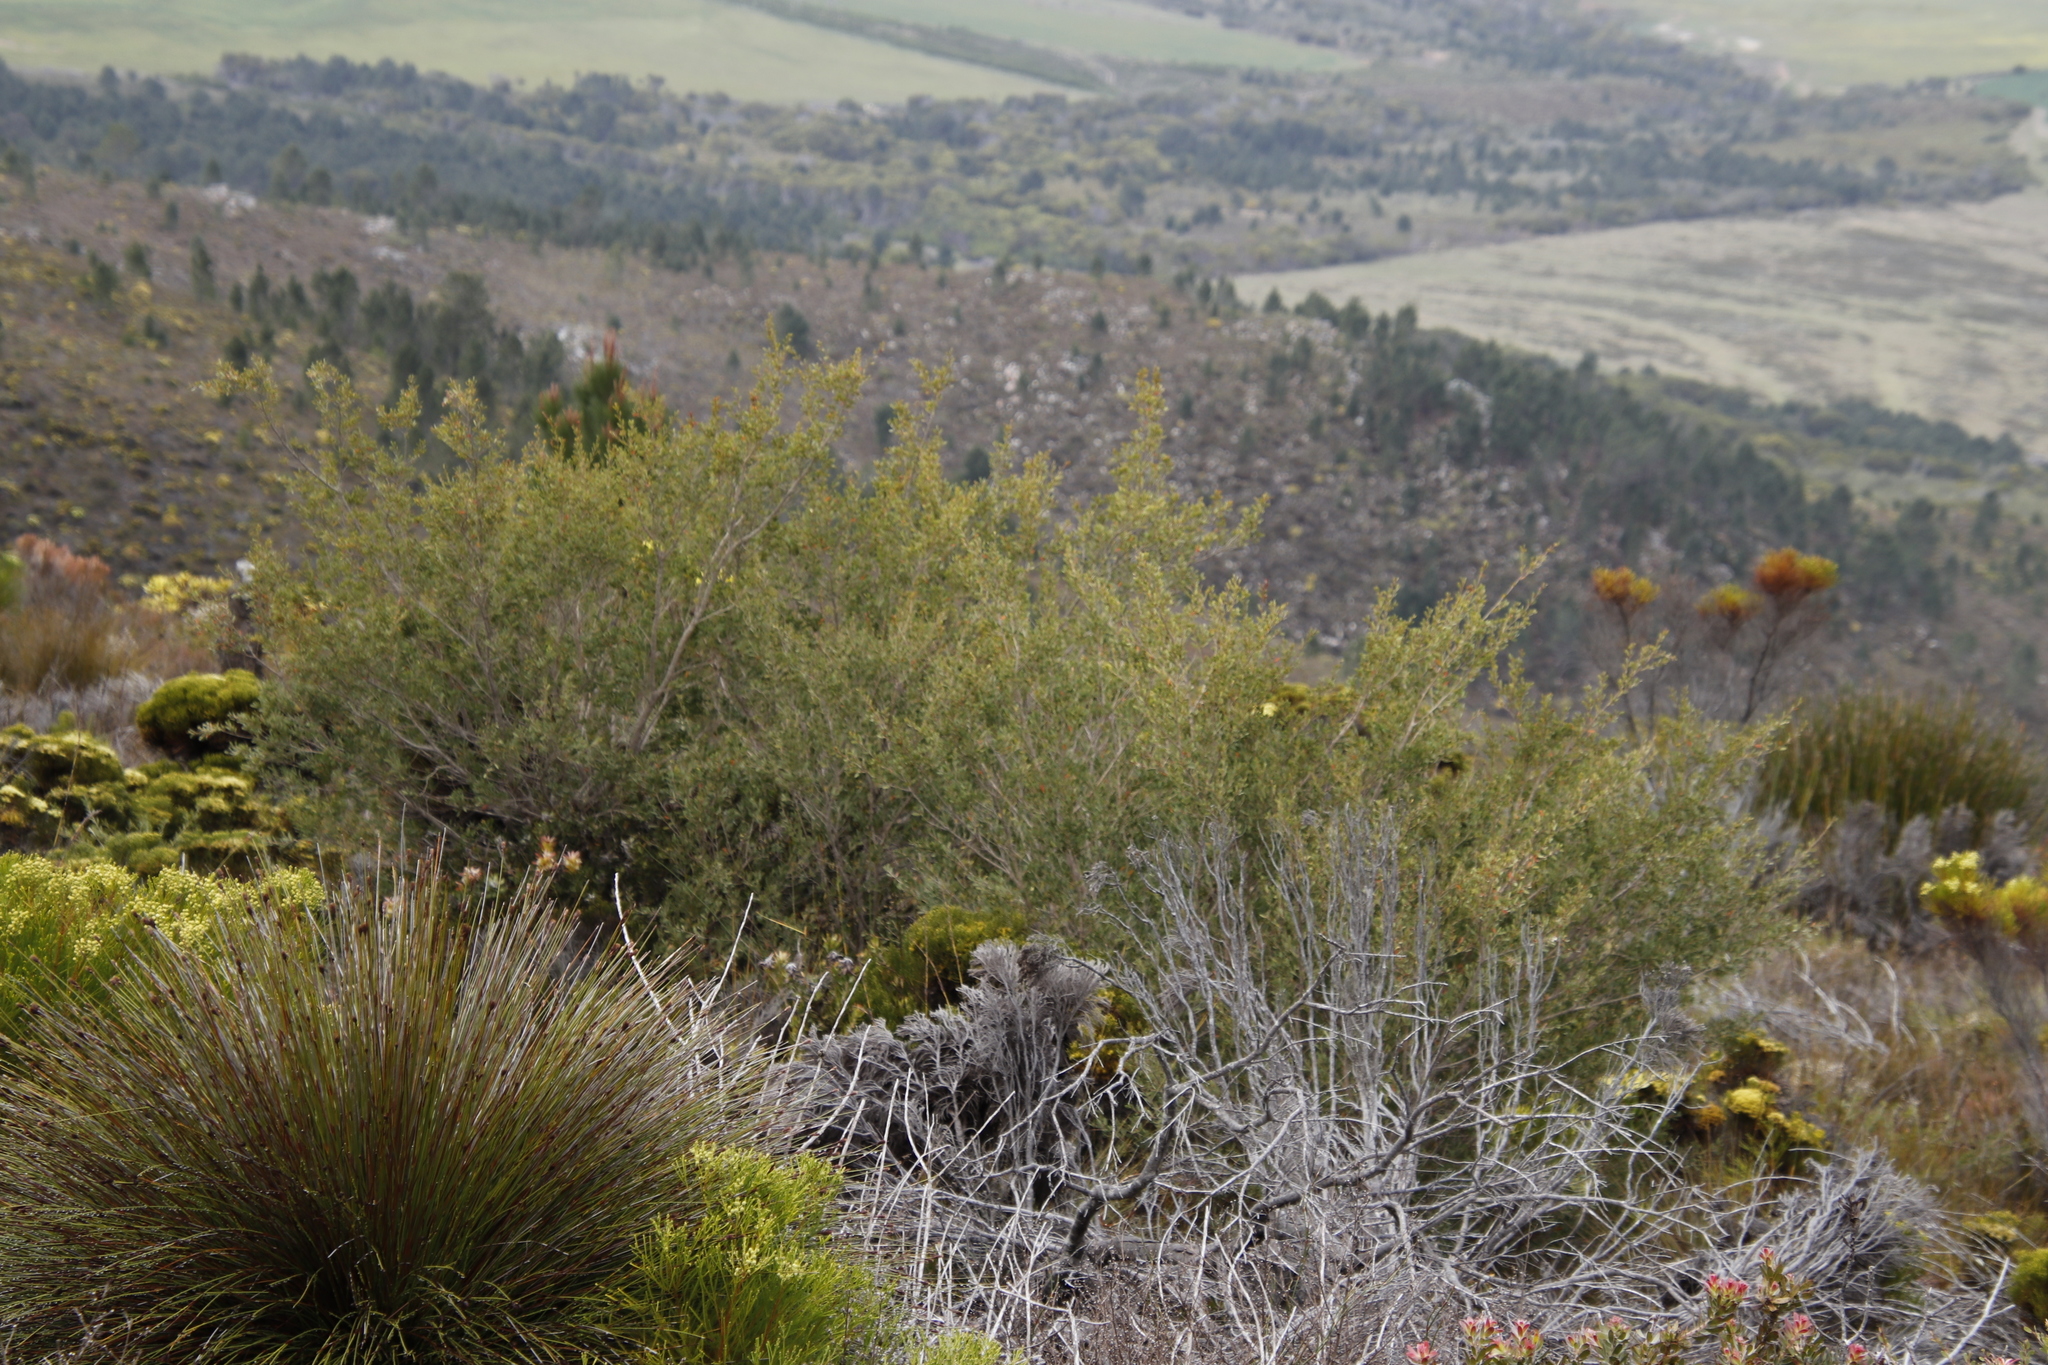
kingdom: Plantae
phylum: Tracheophyta
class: Magnoliopsida
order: Myrtales
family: Myrtaceae
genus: Leptospermum
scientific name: Leptospermum laevigatum
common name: Australian teatree
